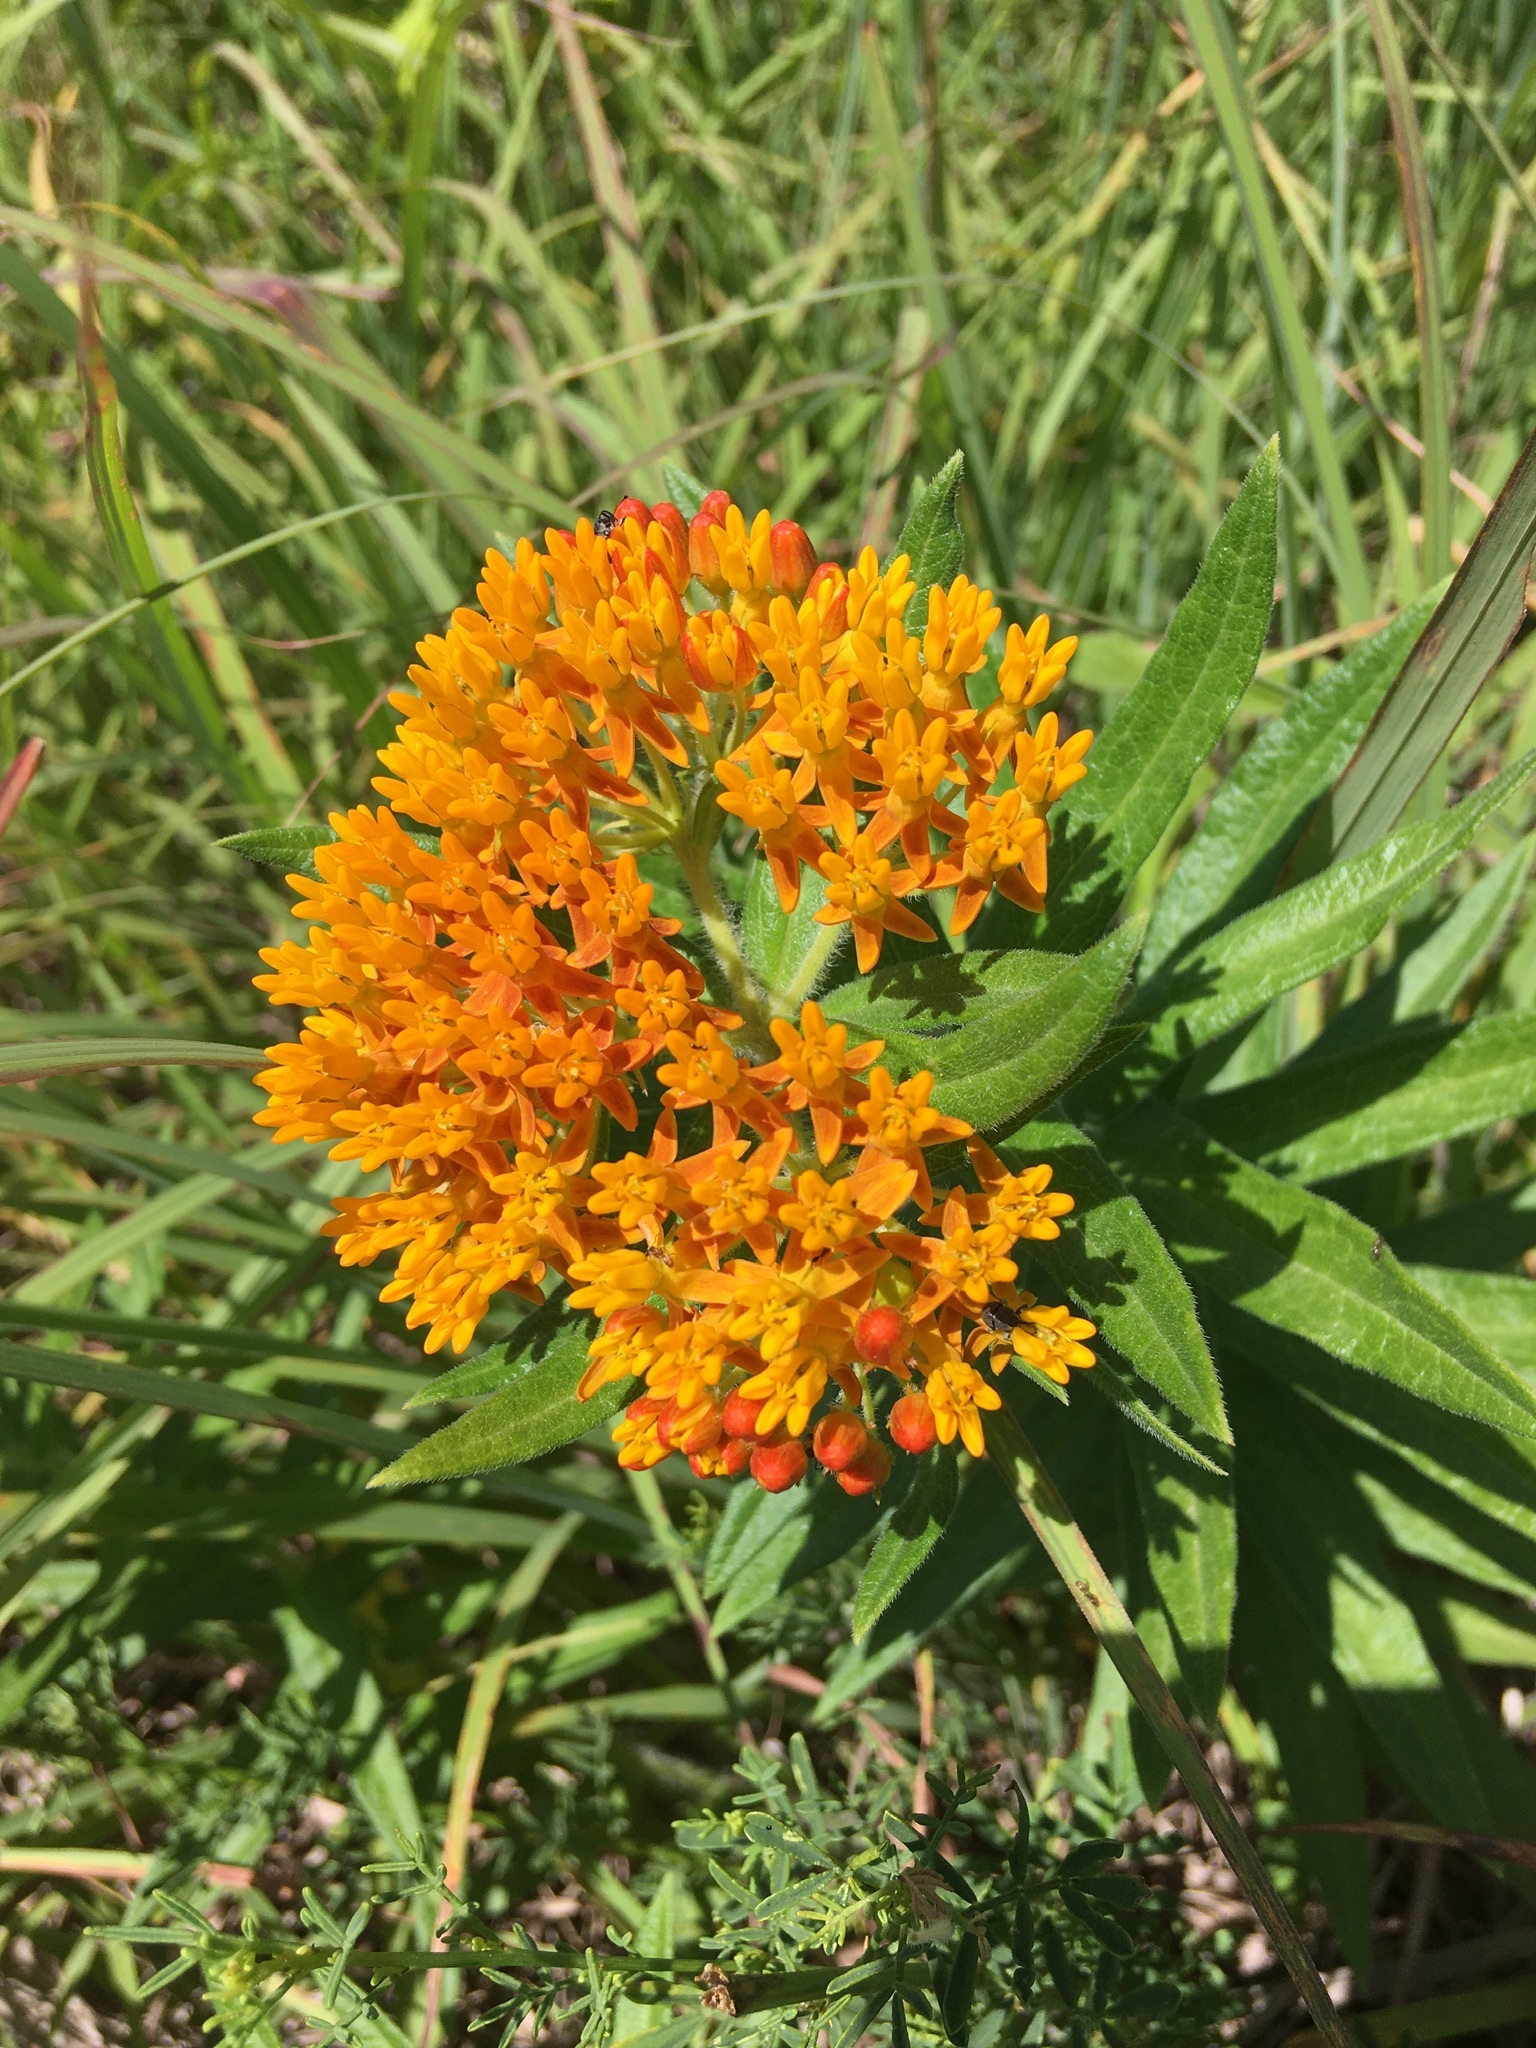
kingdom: Plantae
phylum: Tracheophyta
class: Magnoliopsida
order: Gentianales
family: Apocynaceae
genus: Asclepias
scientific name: Asclepias tuberosa
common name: Butterfly milkweed
